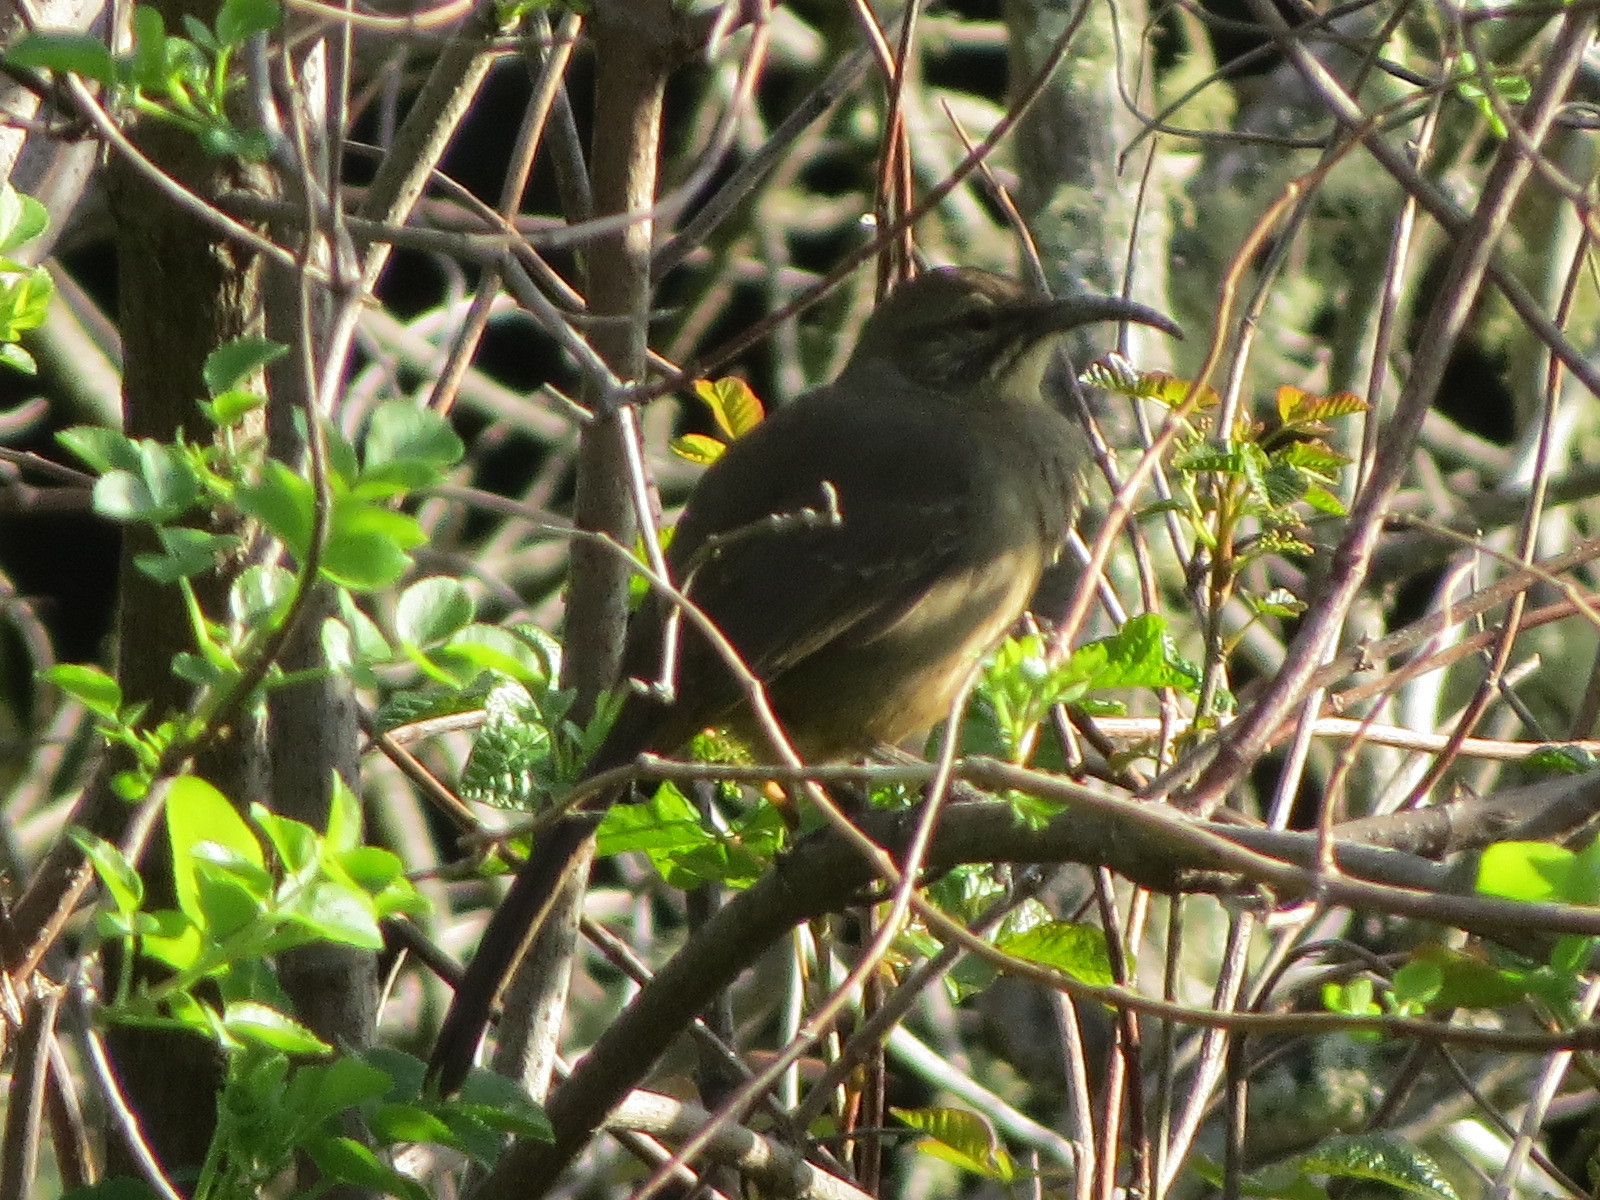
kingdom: Animalia
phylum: Chordata
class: Aves
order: Passeriformes
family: Mimidae
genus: Toxostoma
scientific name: Toxostoma redivivum
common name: California thrasher
